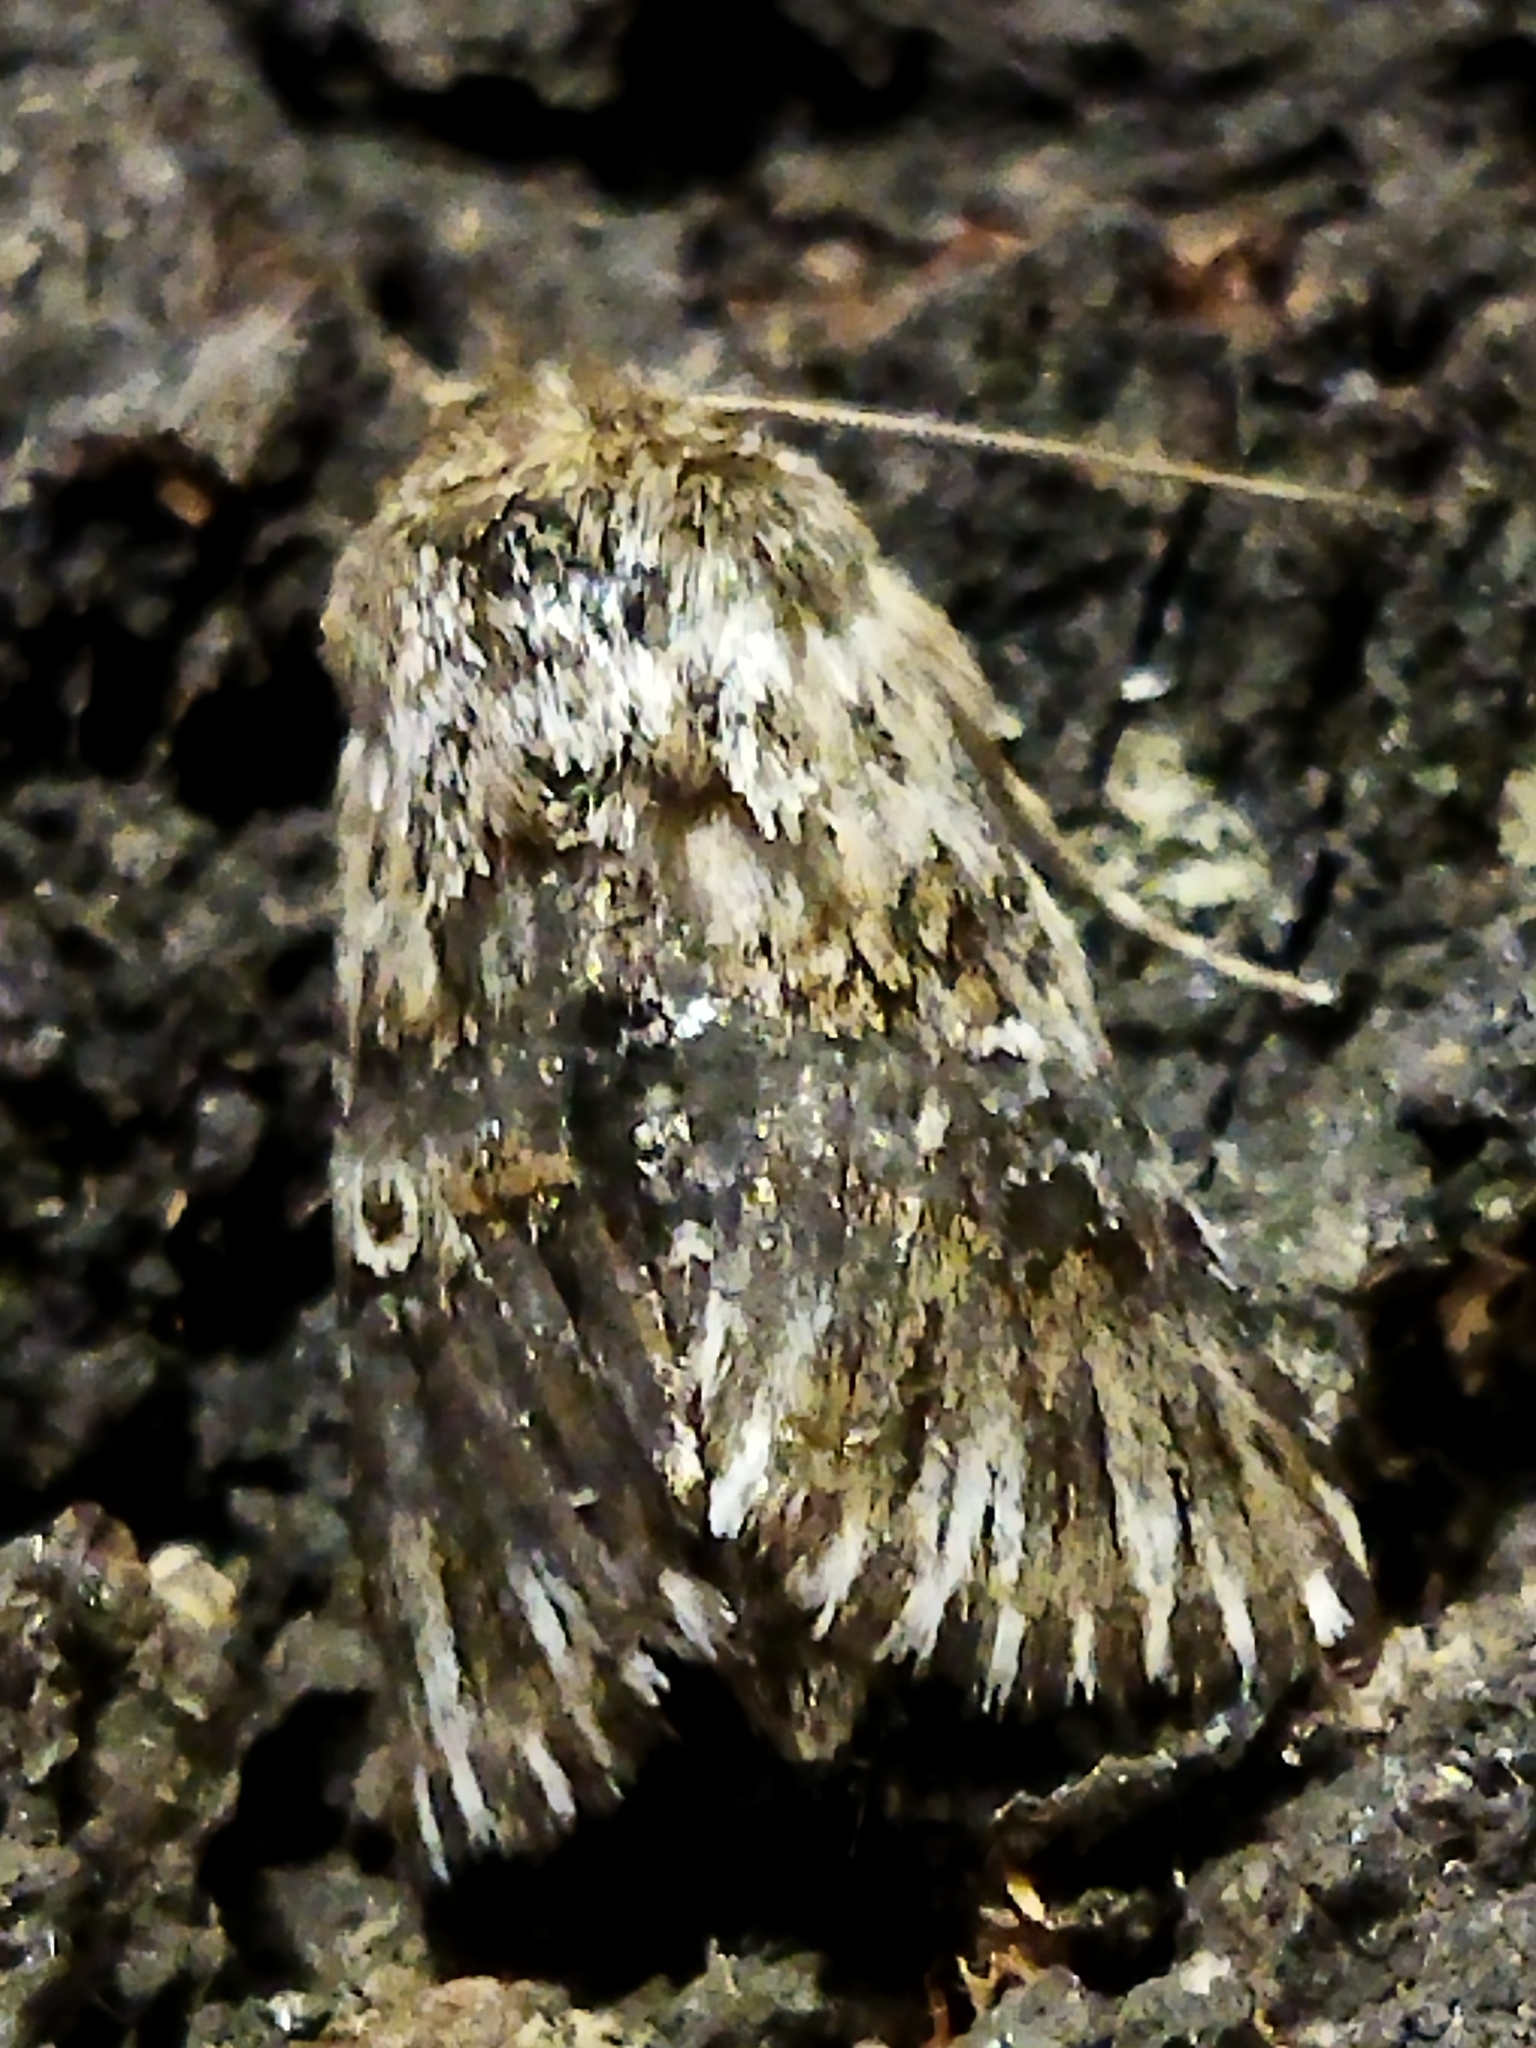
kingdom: Animalia
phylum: Arthropoda
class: Insecta
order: Lepidoptera
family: Noctuidae
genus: Omphalophana
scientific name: Omphalophana antirrhinii
